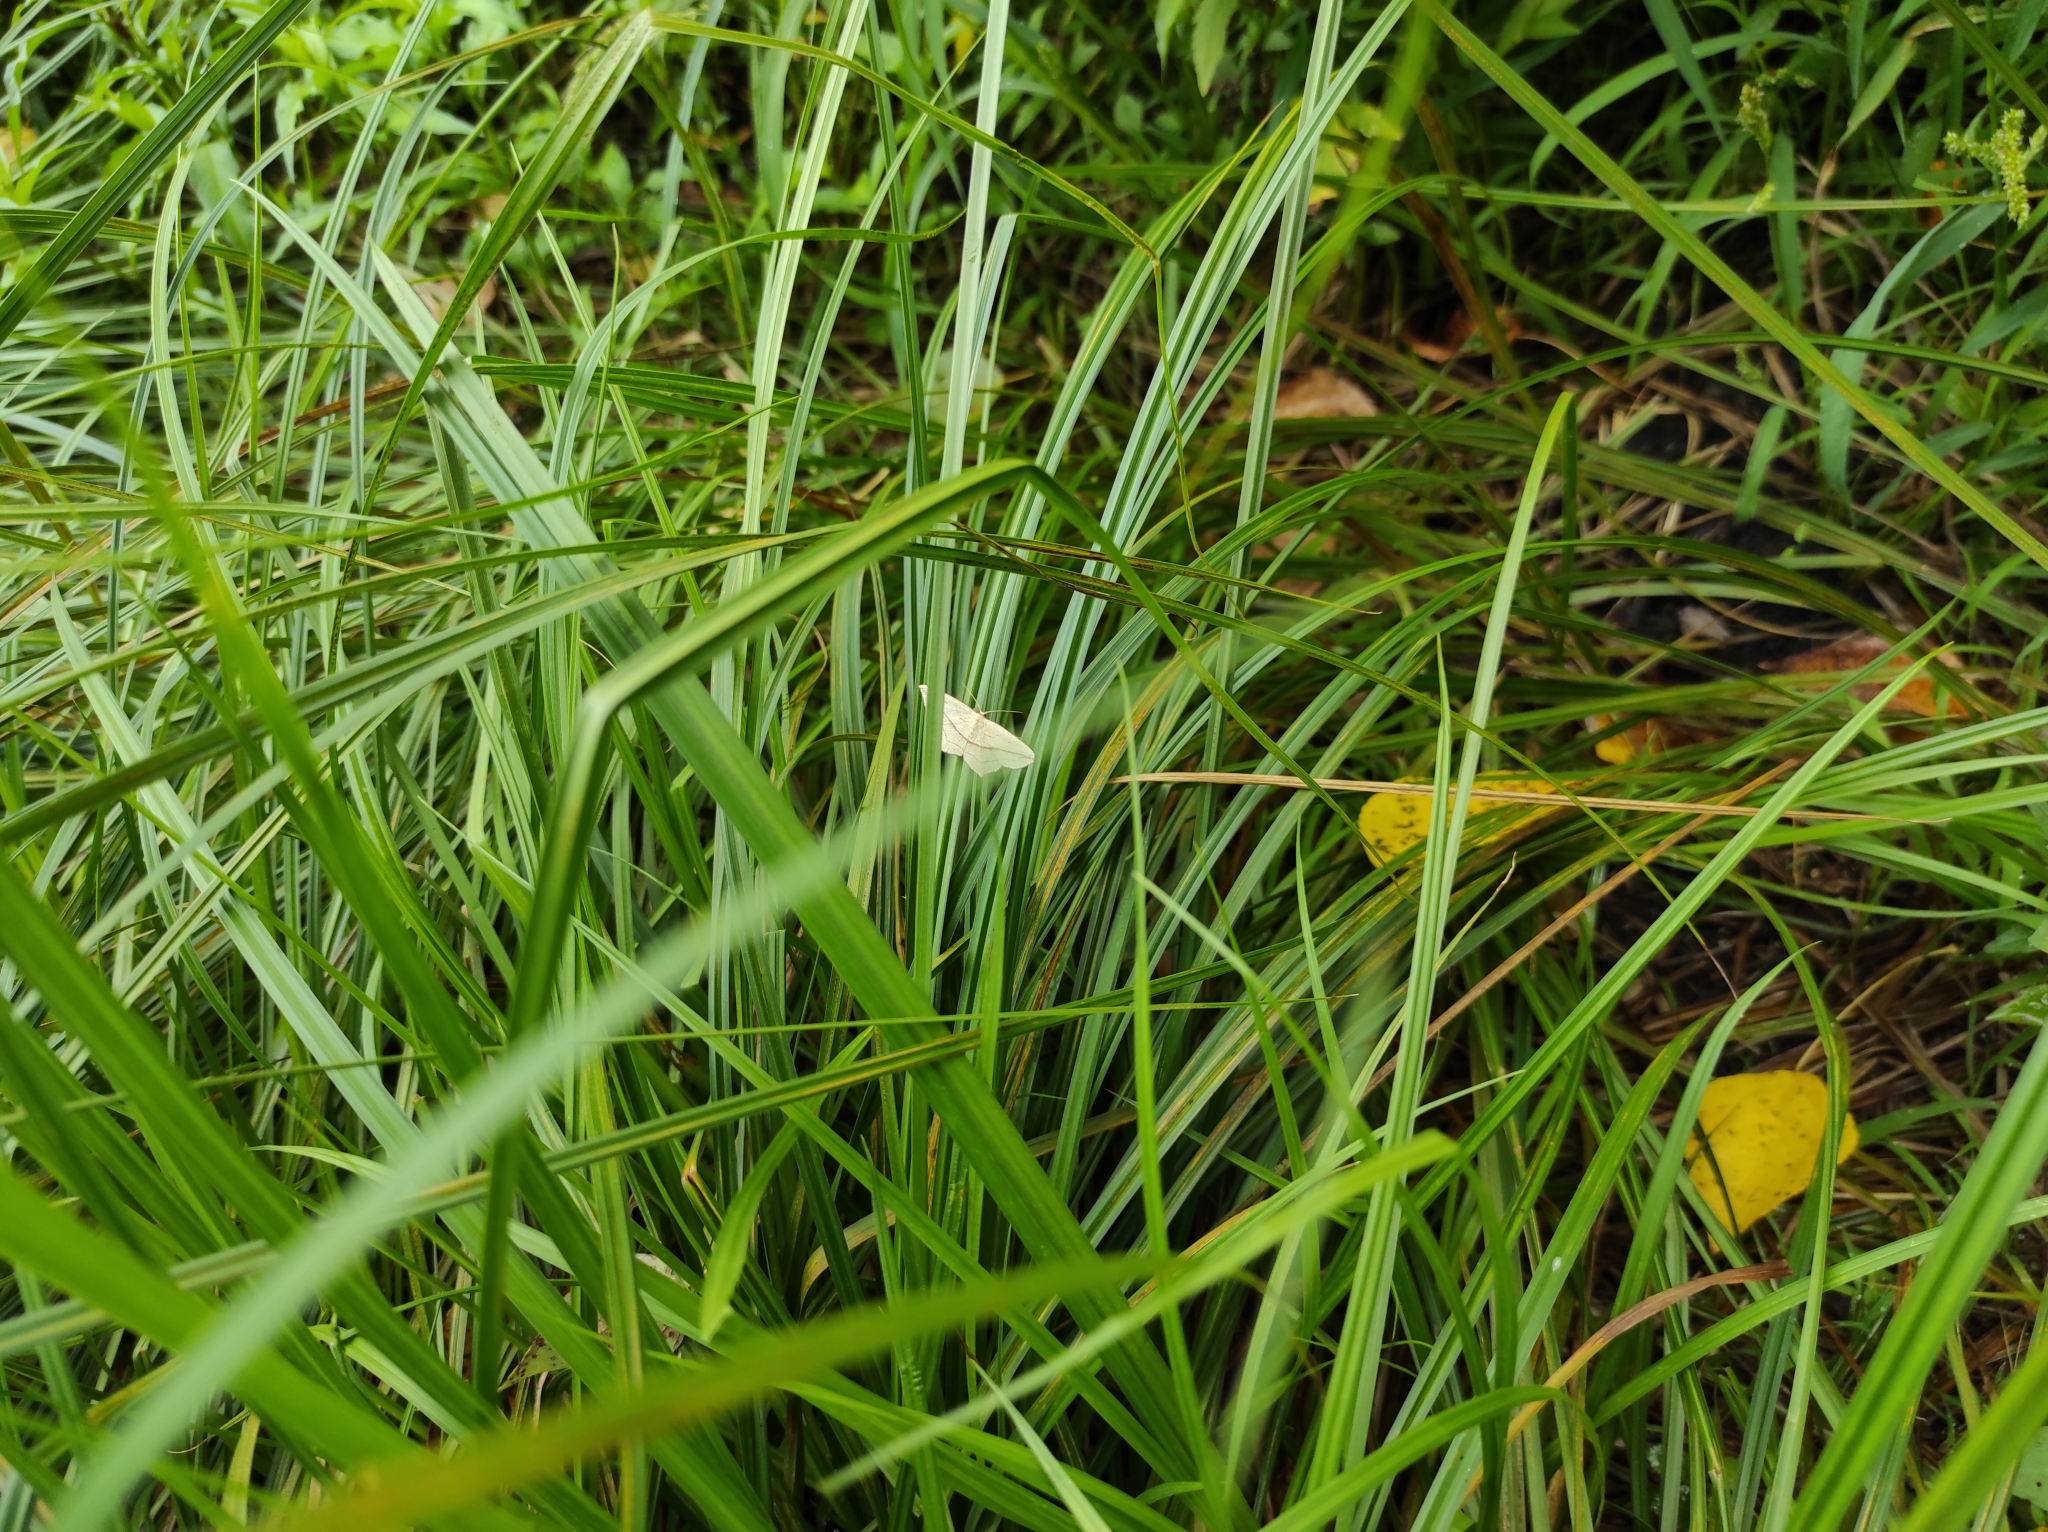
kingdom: Animalia
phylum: Arthropoda
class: Insecta
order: Lepidoptera
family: Geometridae
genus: Timandra
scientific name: Timandra comae
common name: Blood-vein
